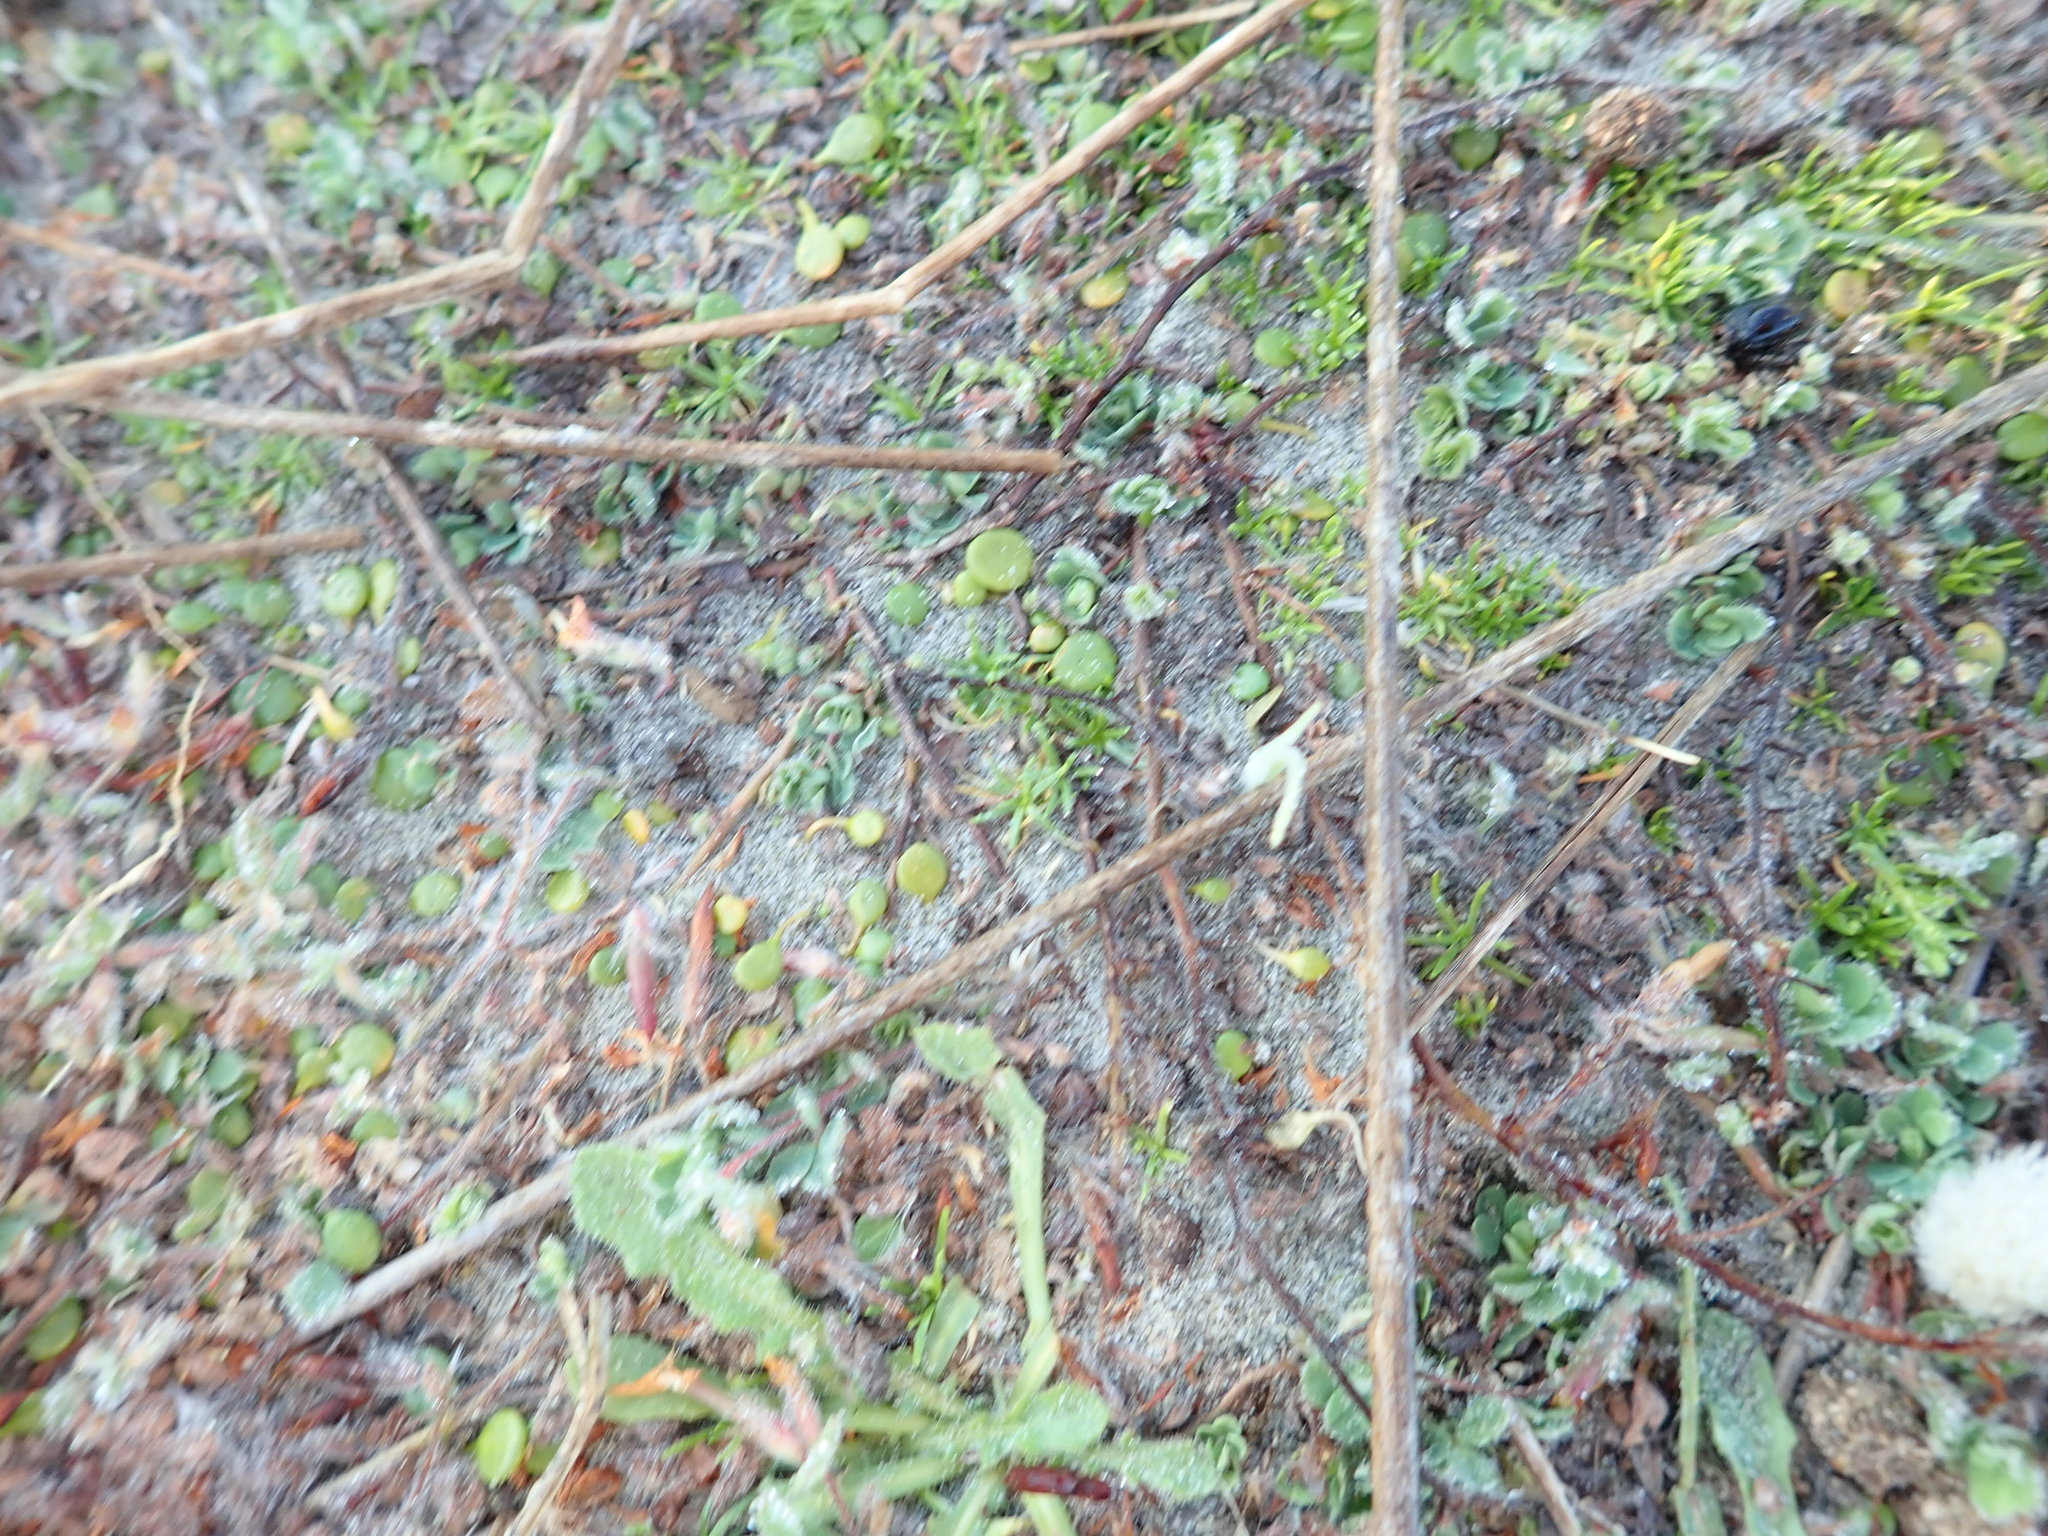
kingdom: Plantae
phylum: Tracheophyta
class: Magnoliopsida
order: Caryophyllales
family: Caryophyllaceae
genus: Sagina
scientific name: Sagina procumbens
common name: Procumbent pearlwort
